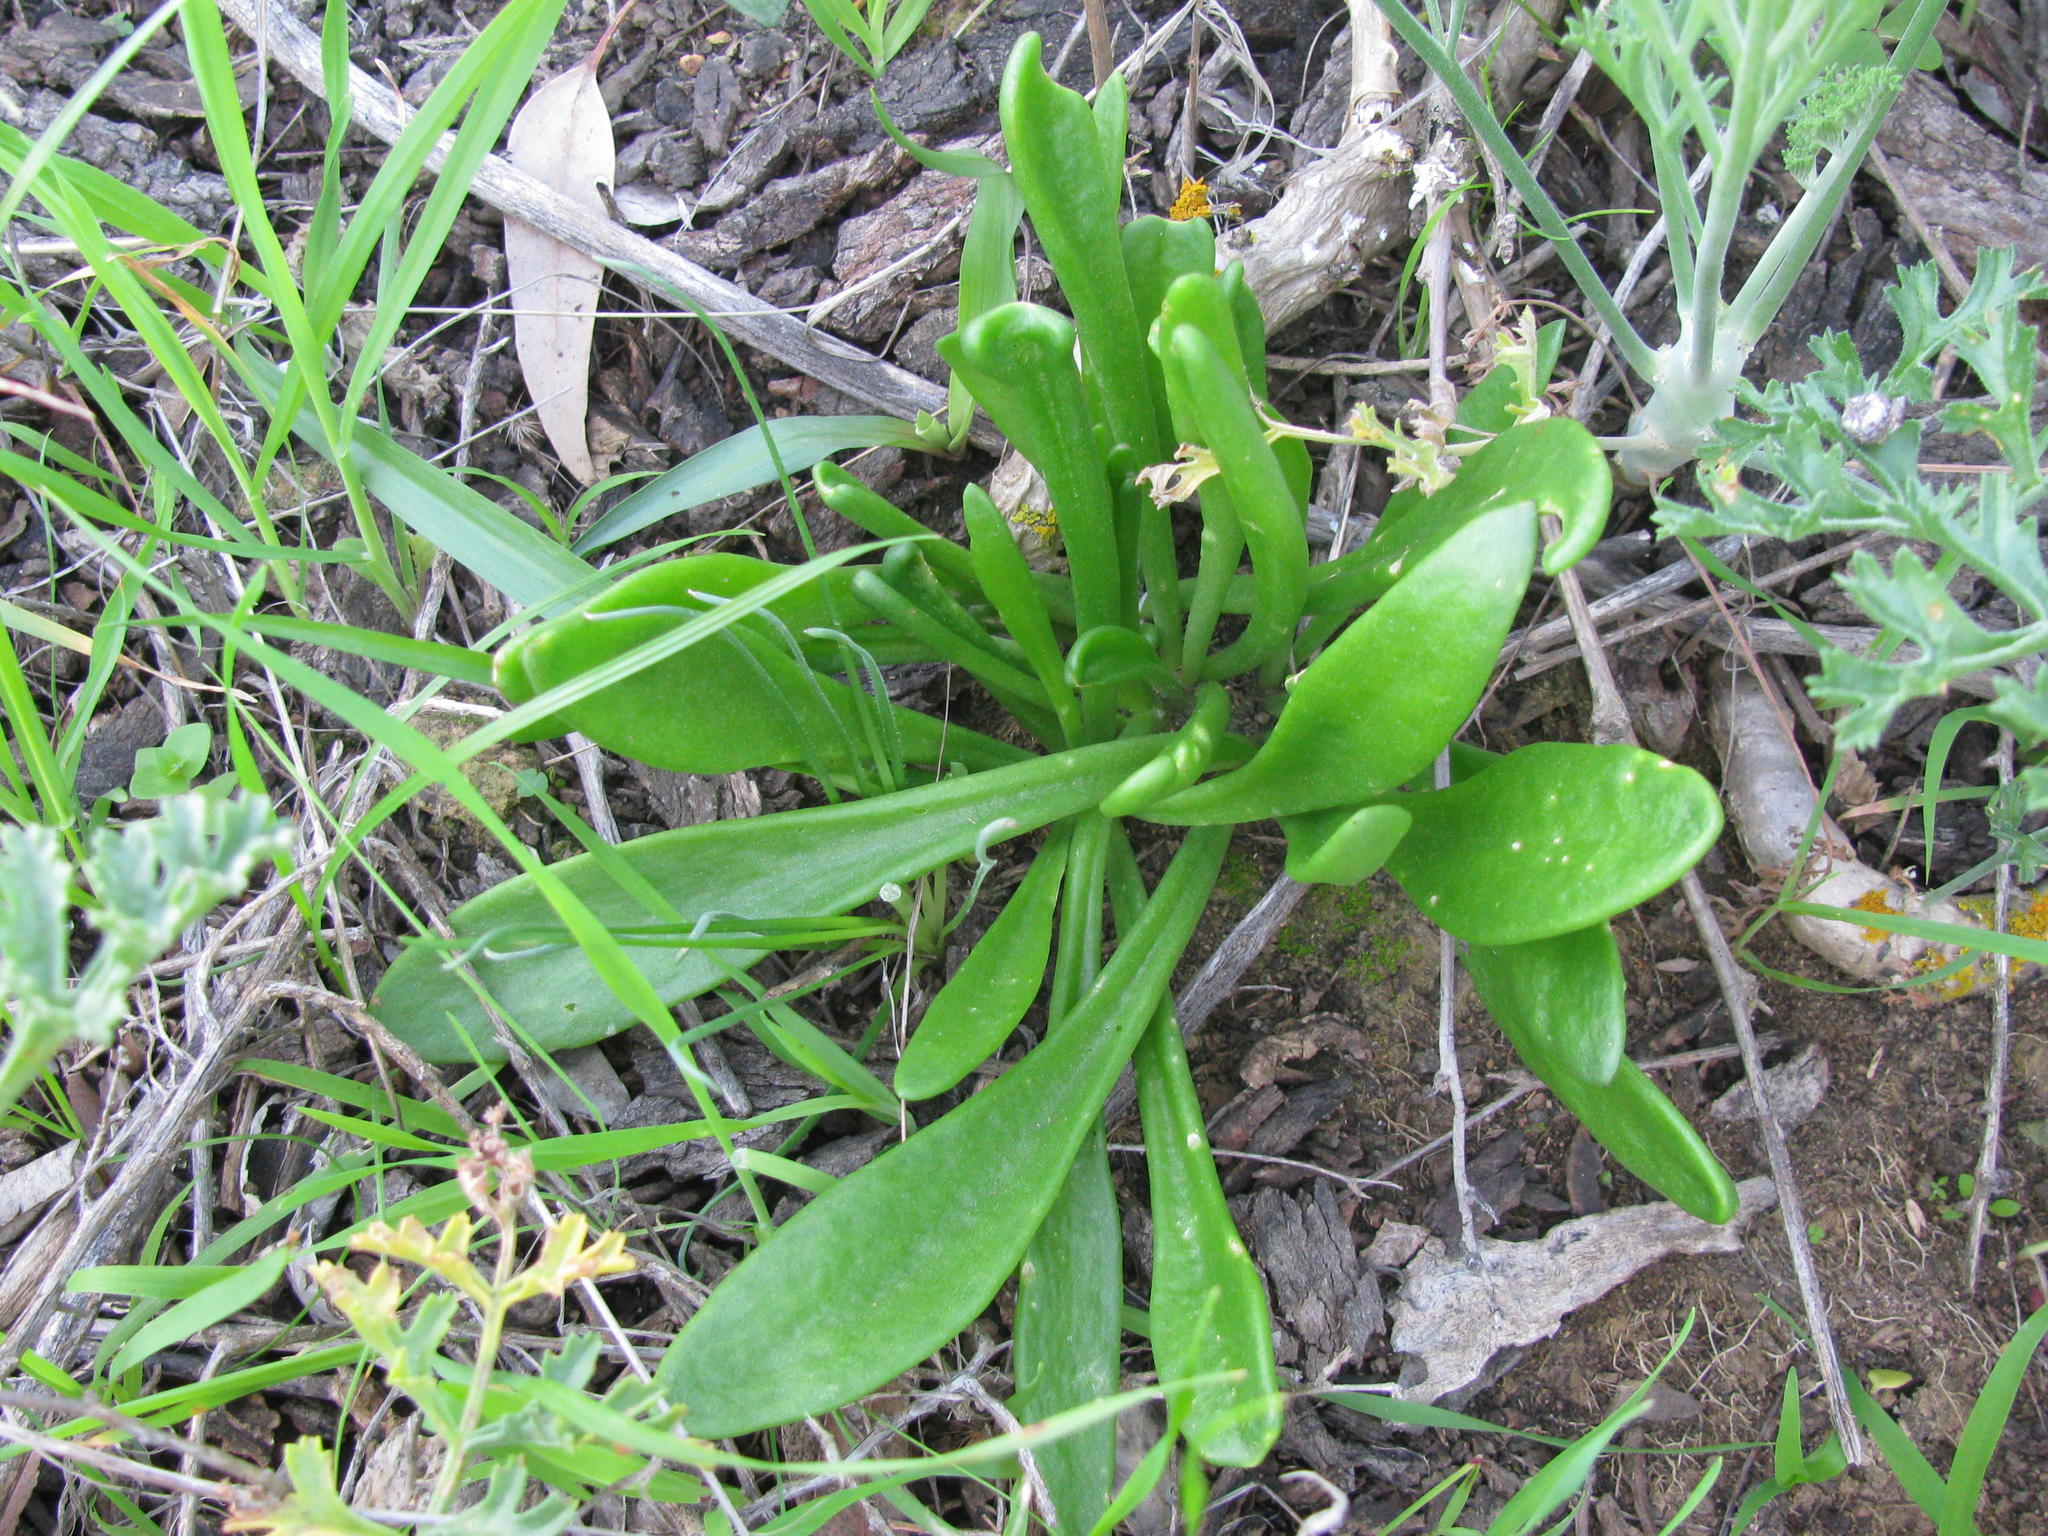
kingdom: Plantae
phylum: Tracheophyta
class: Magnoliopsida
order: Saxifragales
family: Crassulaceae
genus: Tylecodon
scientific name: Tylecodon ventricosus
